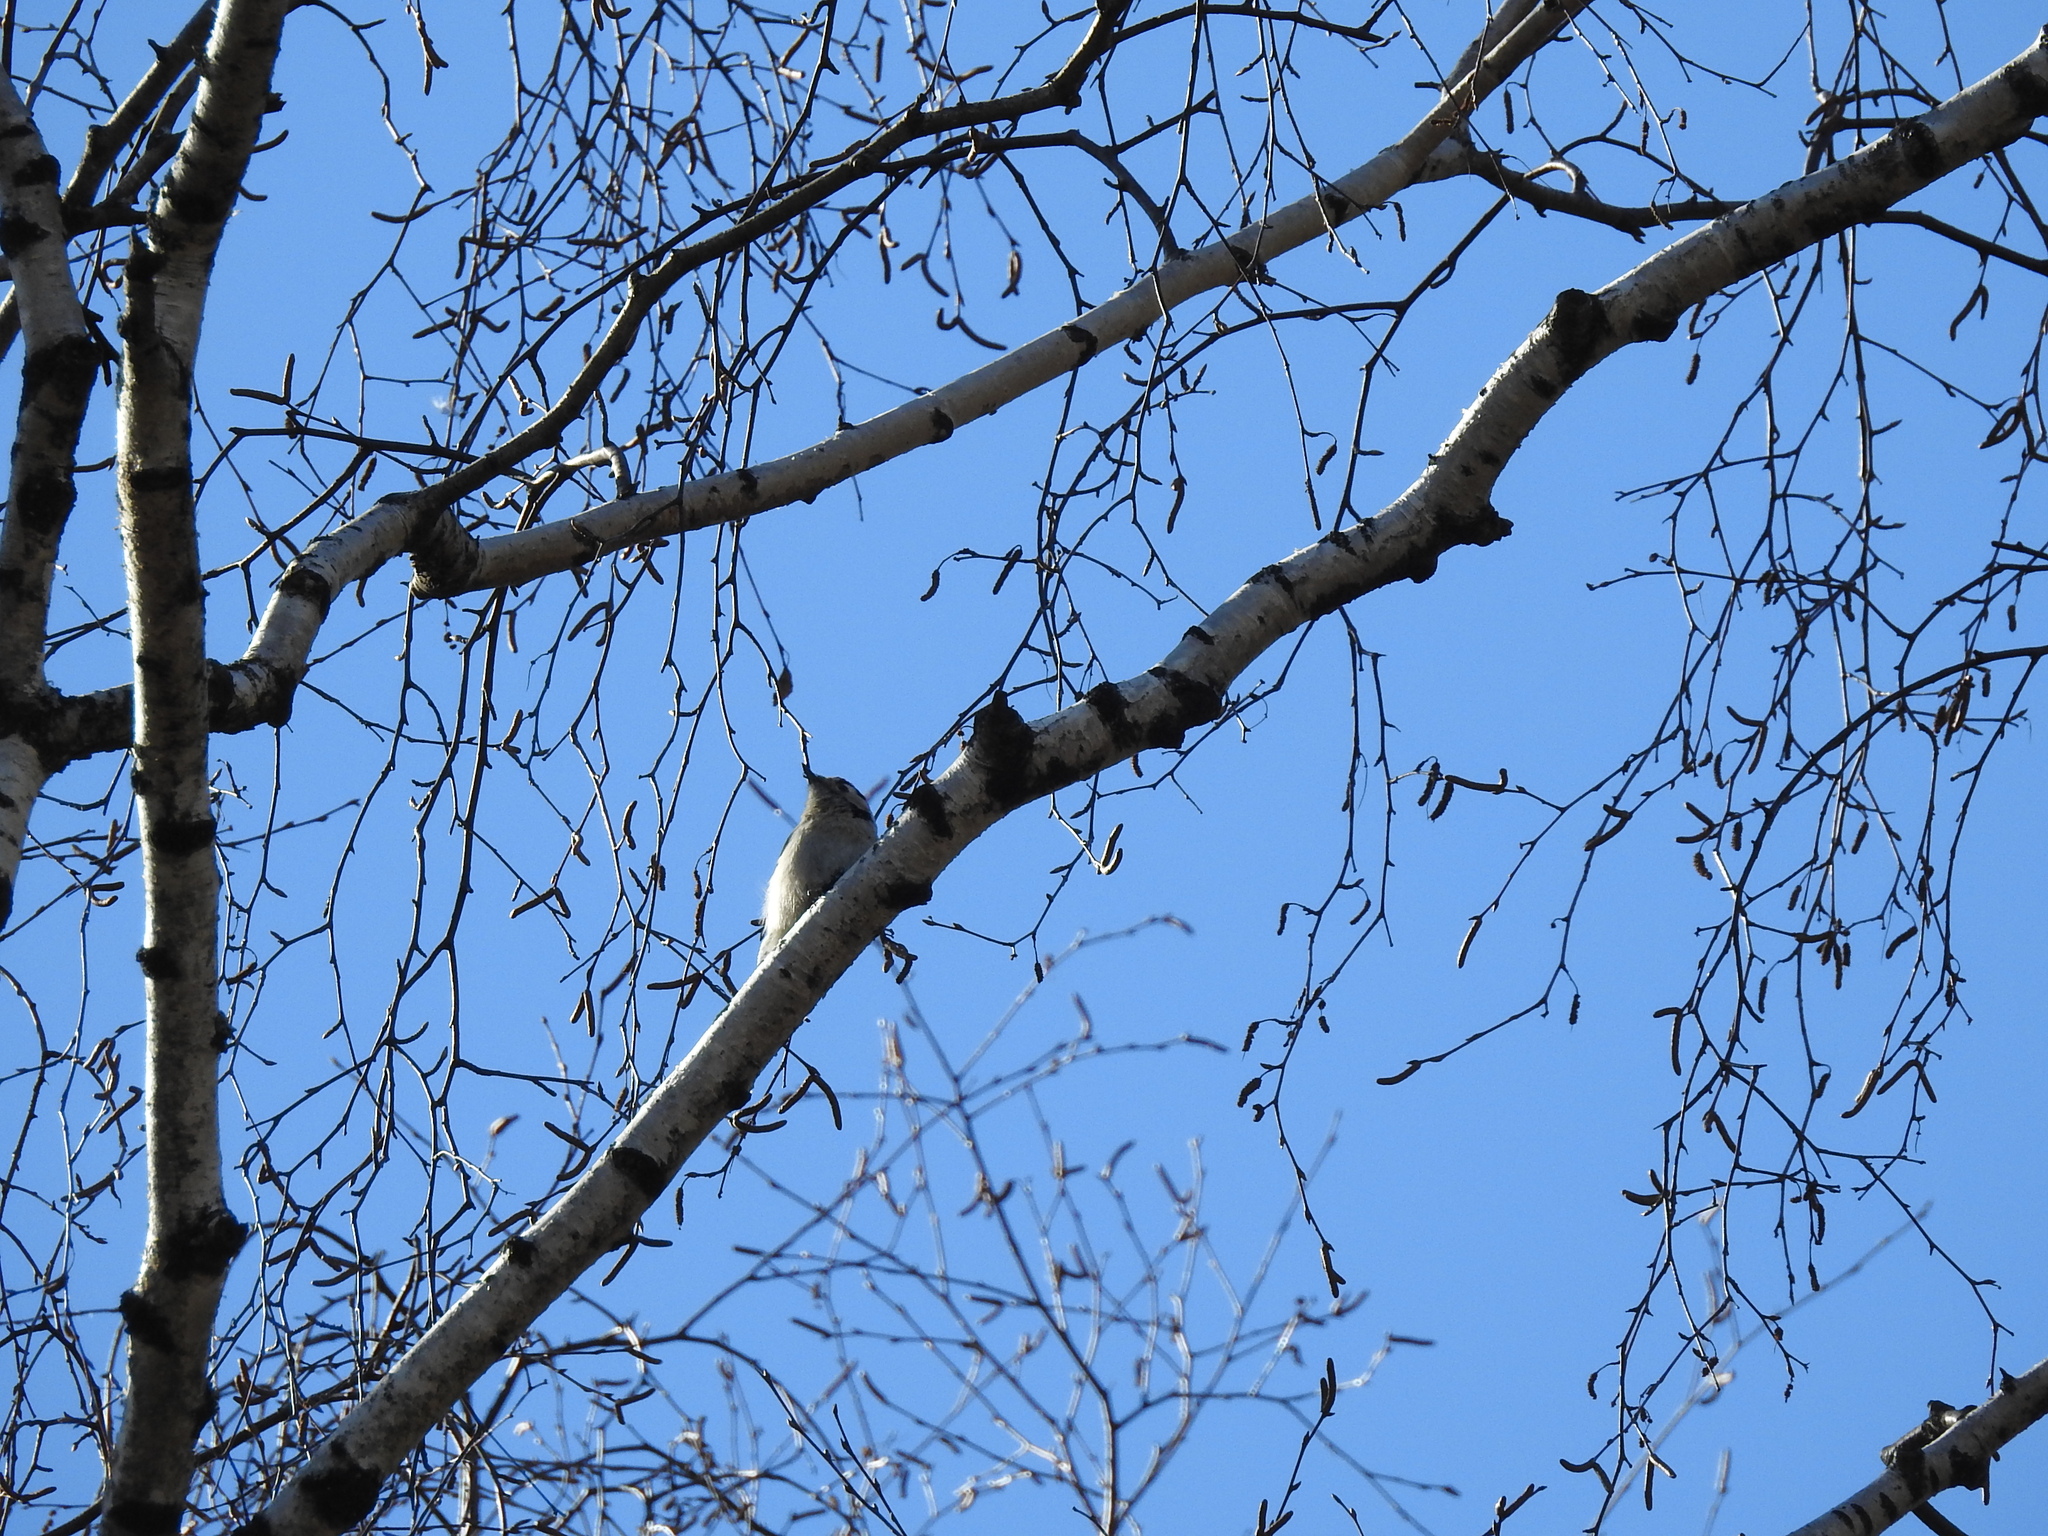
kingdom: Animalia
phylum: Chordata
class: Aves
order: Piciformes
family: Picidae
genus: Dryobates
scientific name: Dryobates minor
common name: Lesser spotted woodpecker
